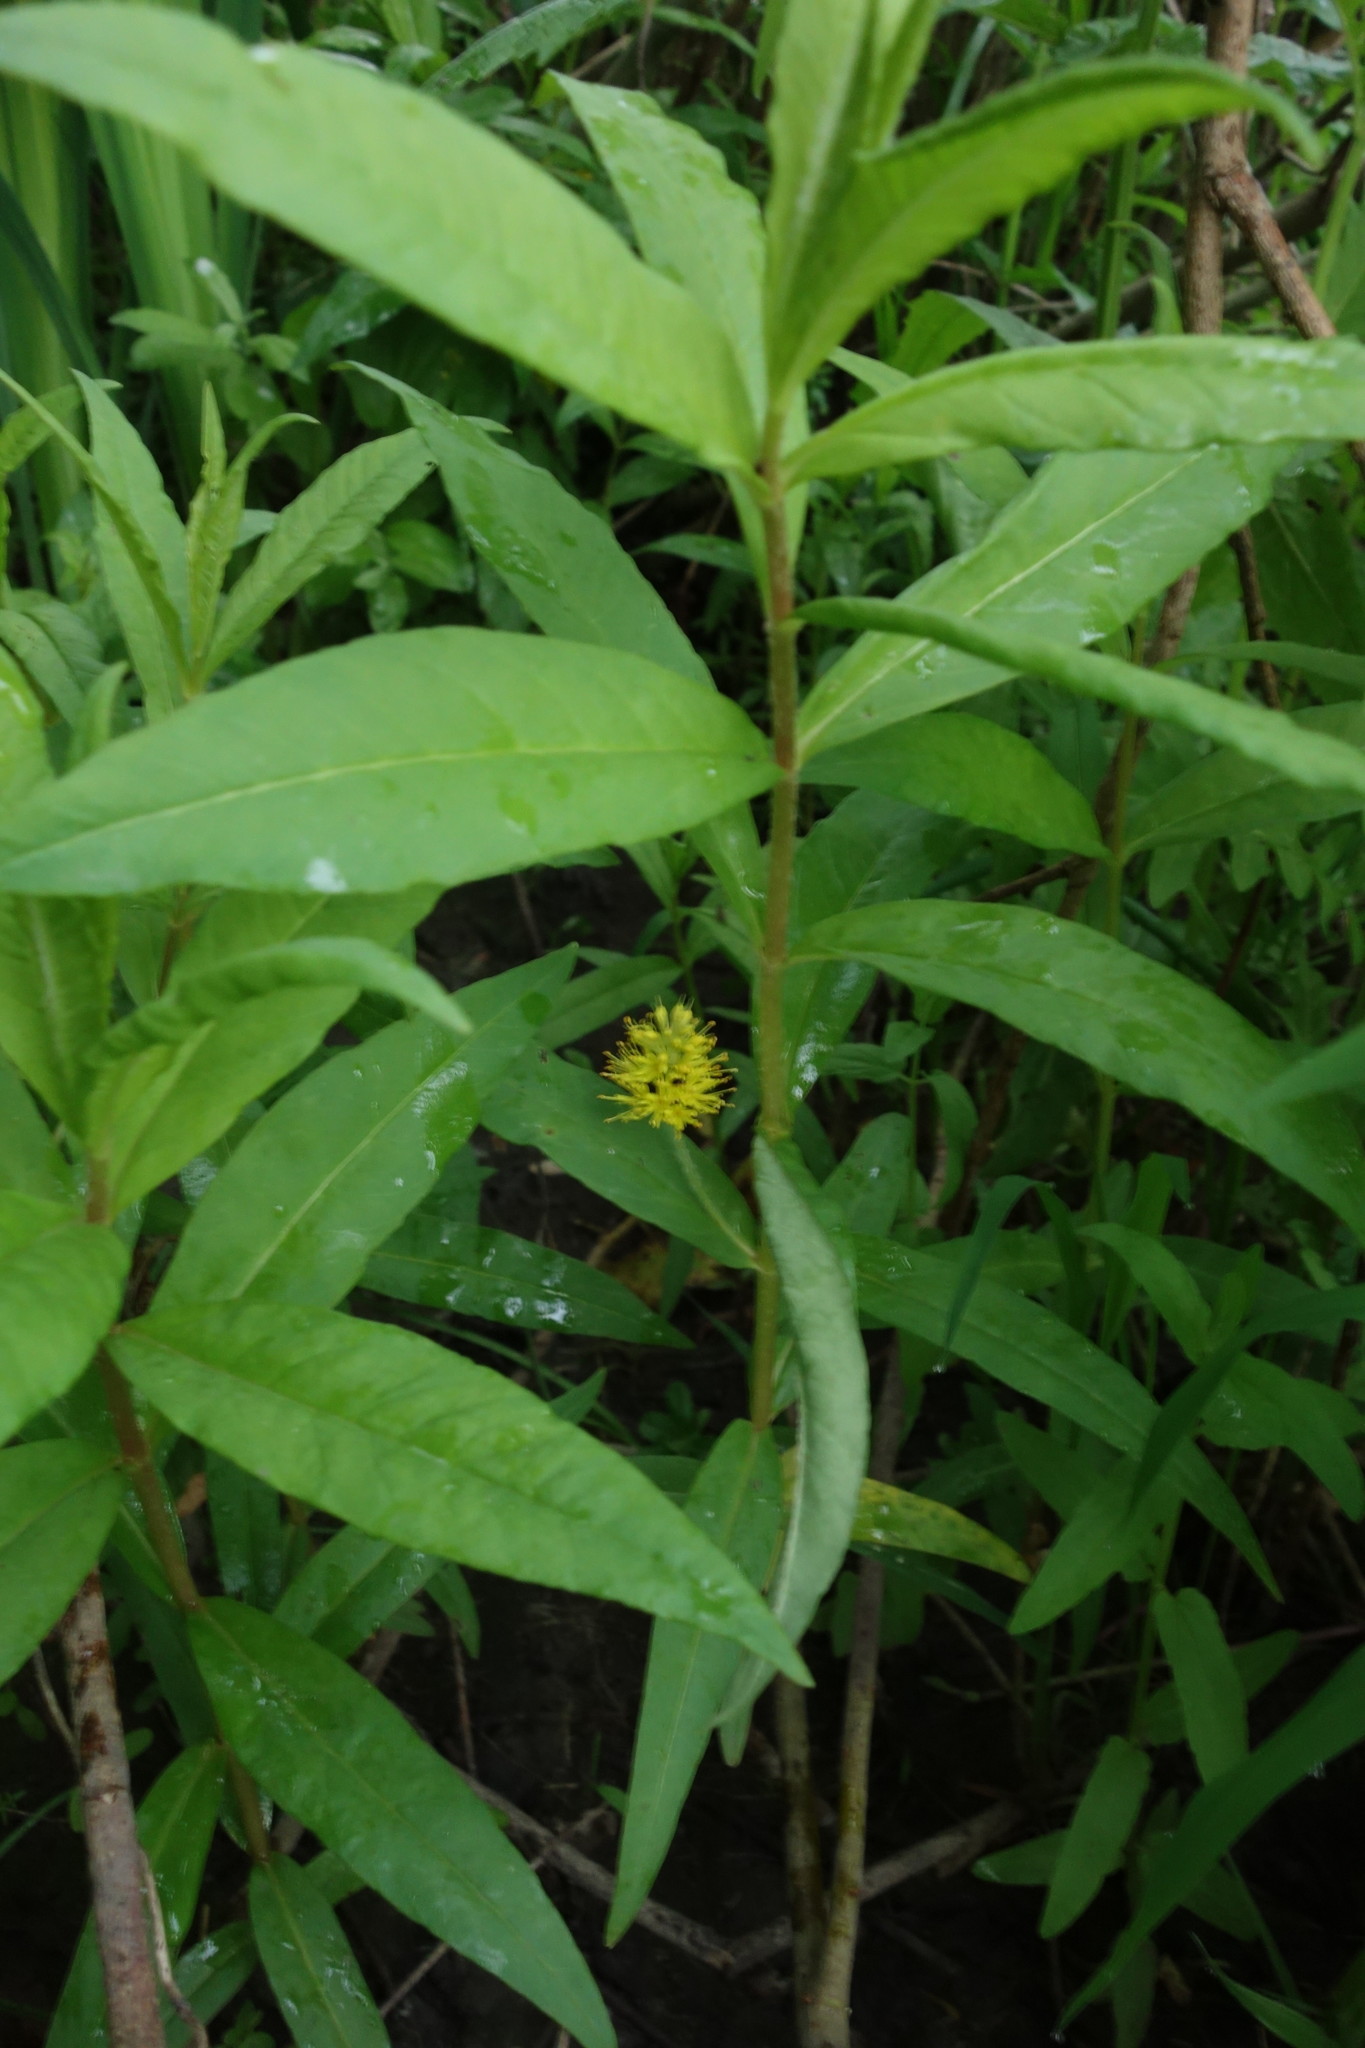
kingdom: Plantae
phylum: Tracheophyta
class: Magnoliopsida
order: Ericales
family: Primulaceae
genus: Lysimachia
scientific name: Lysimachia thyrsiflora
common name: Tufted loosestrife
